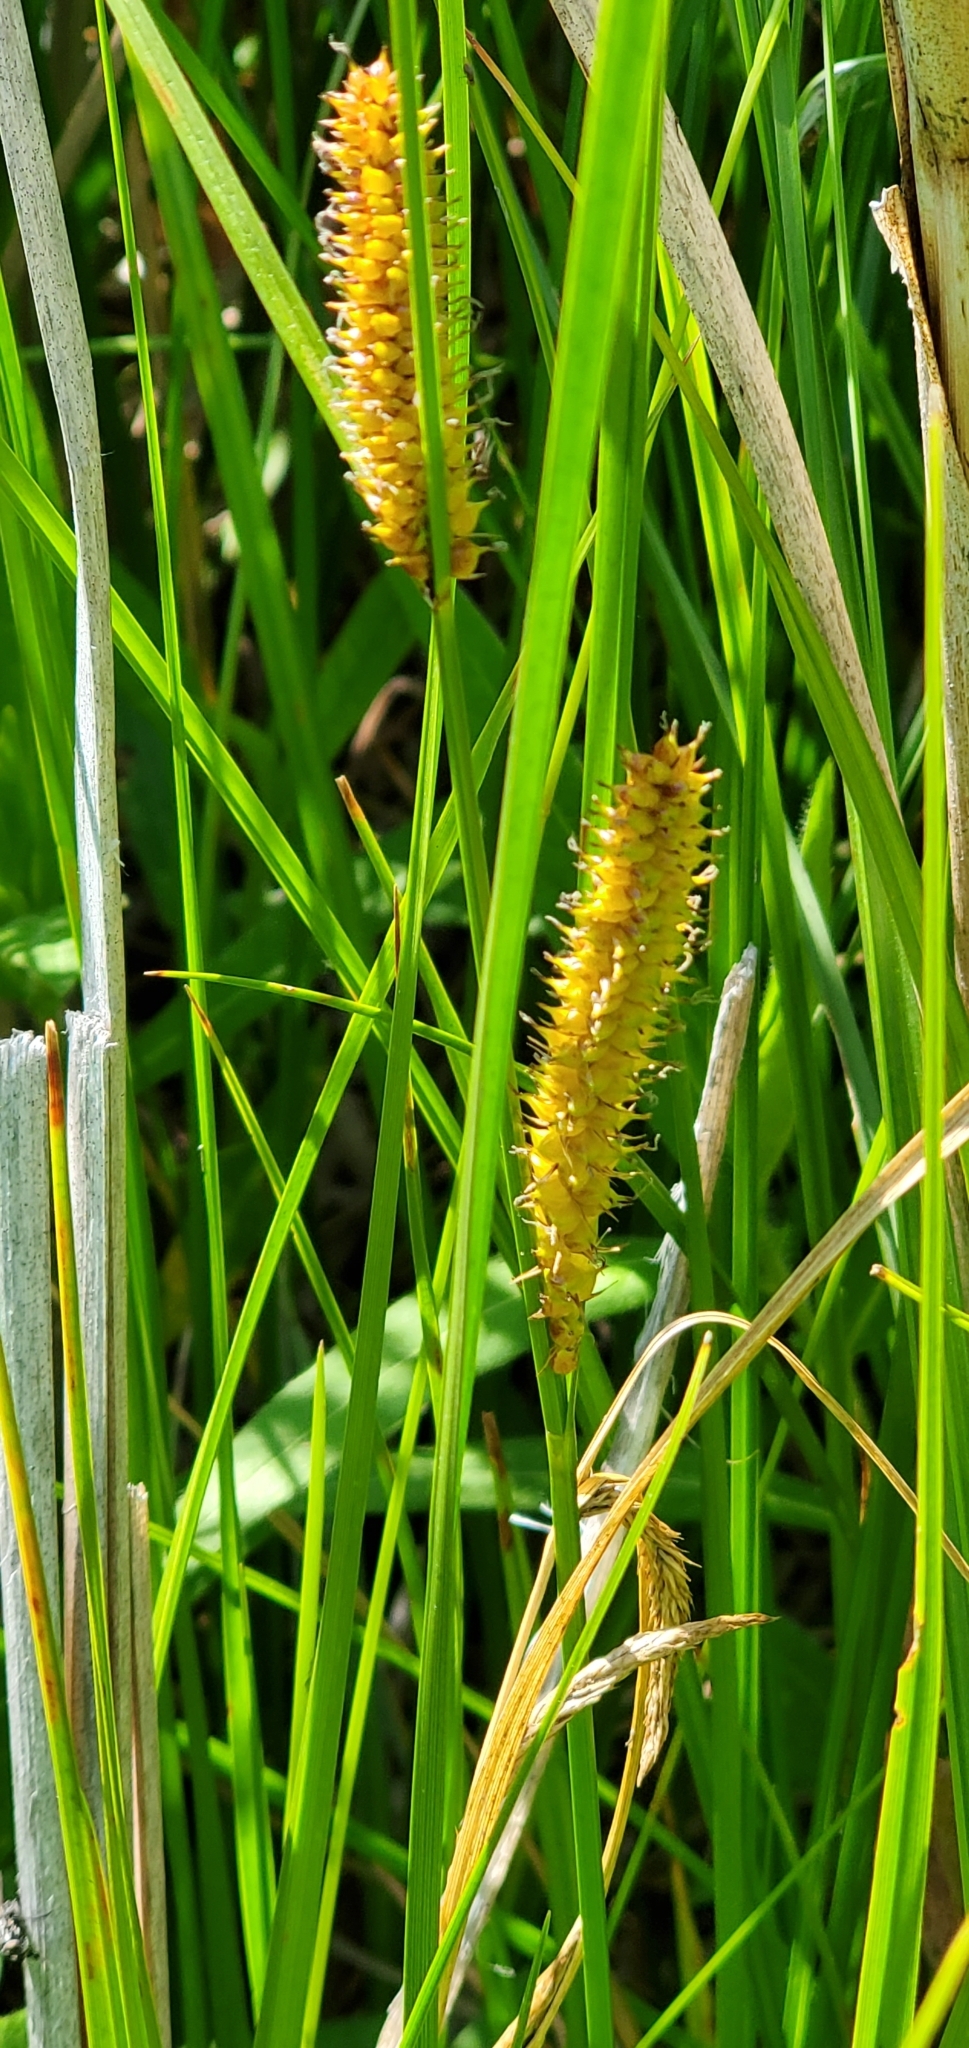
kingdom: Plantae
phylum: Tracheophyta
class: Liliopsida
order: Poales
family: Cyperaceae
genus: Carex
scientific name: Carex utriculata
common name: Beaked sedge
